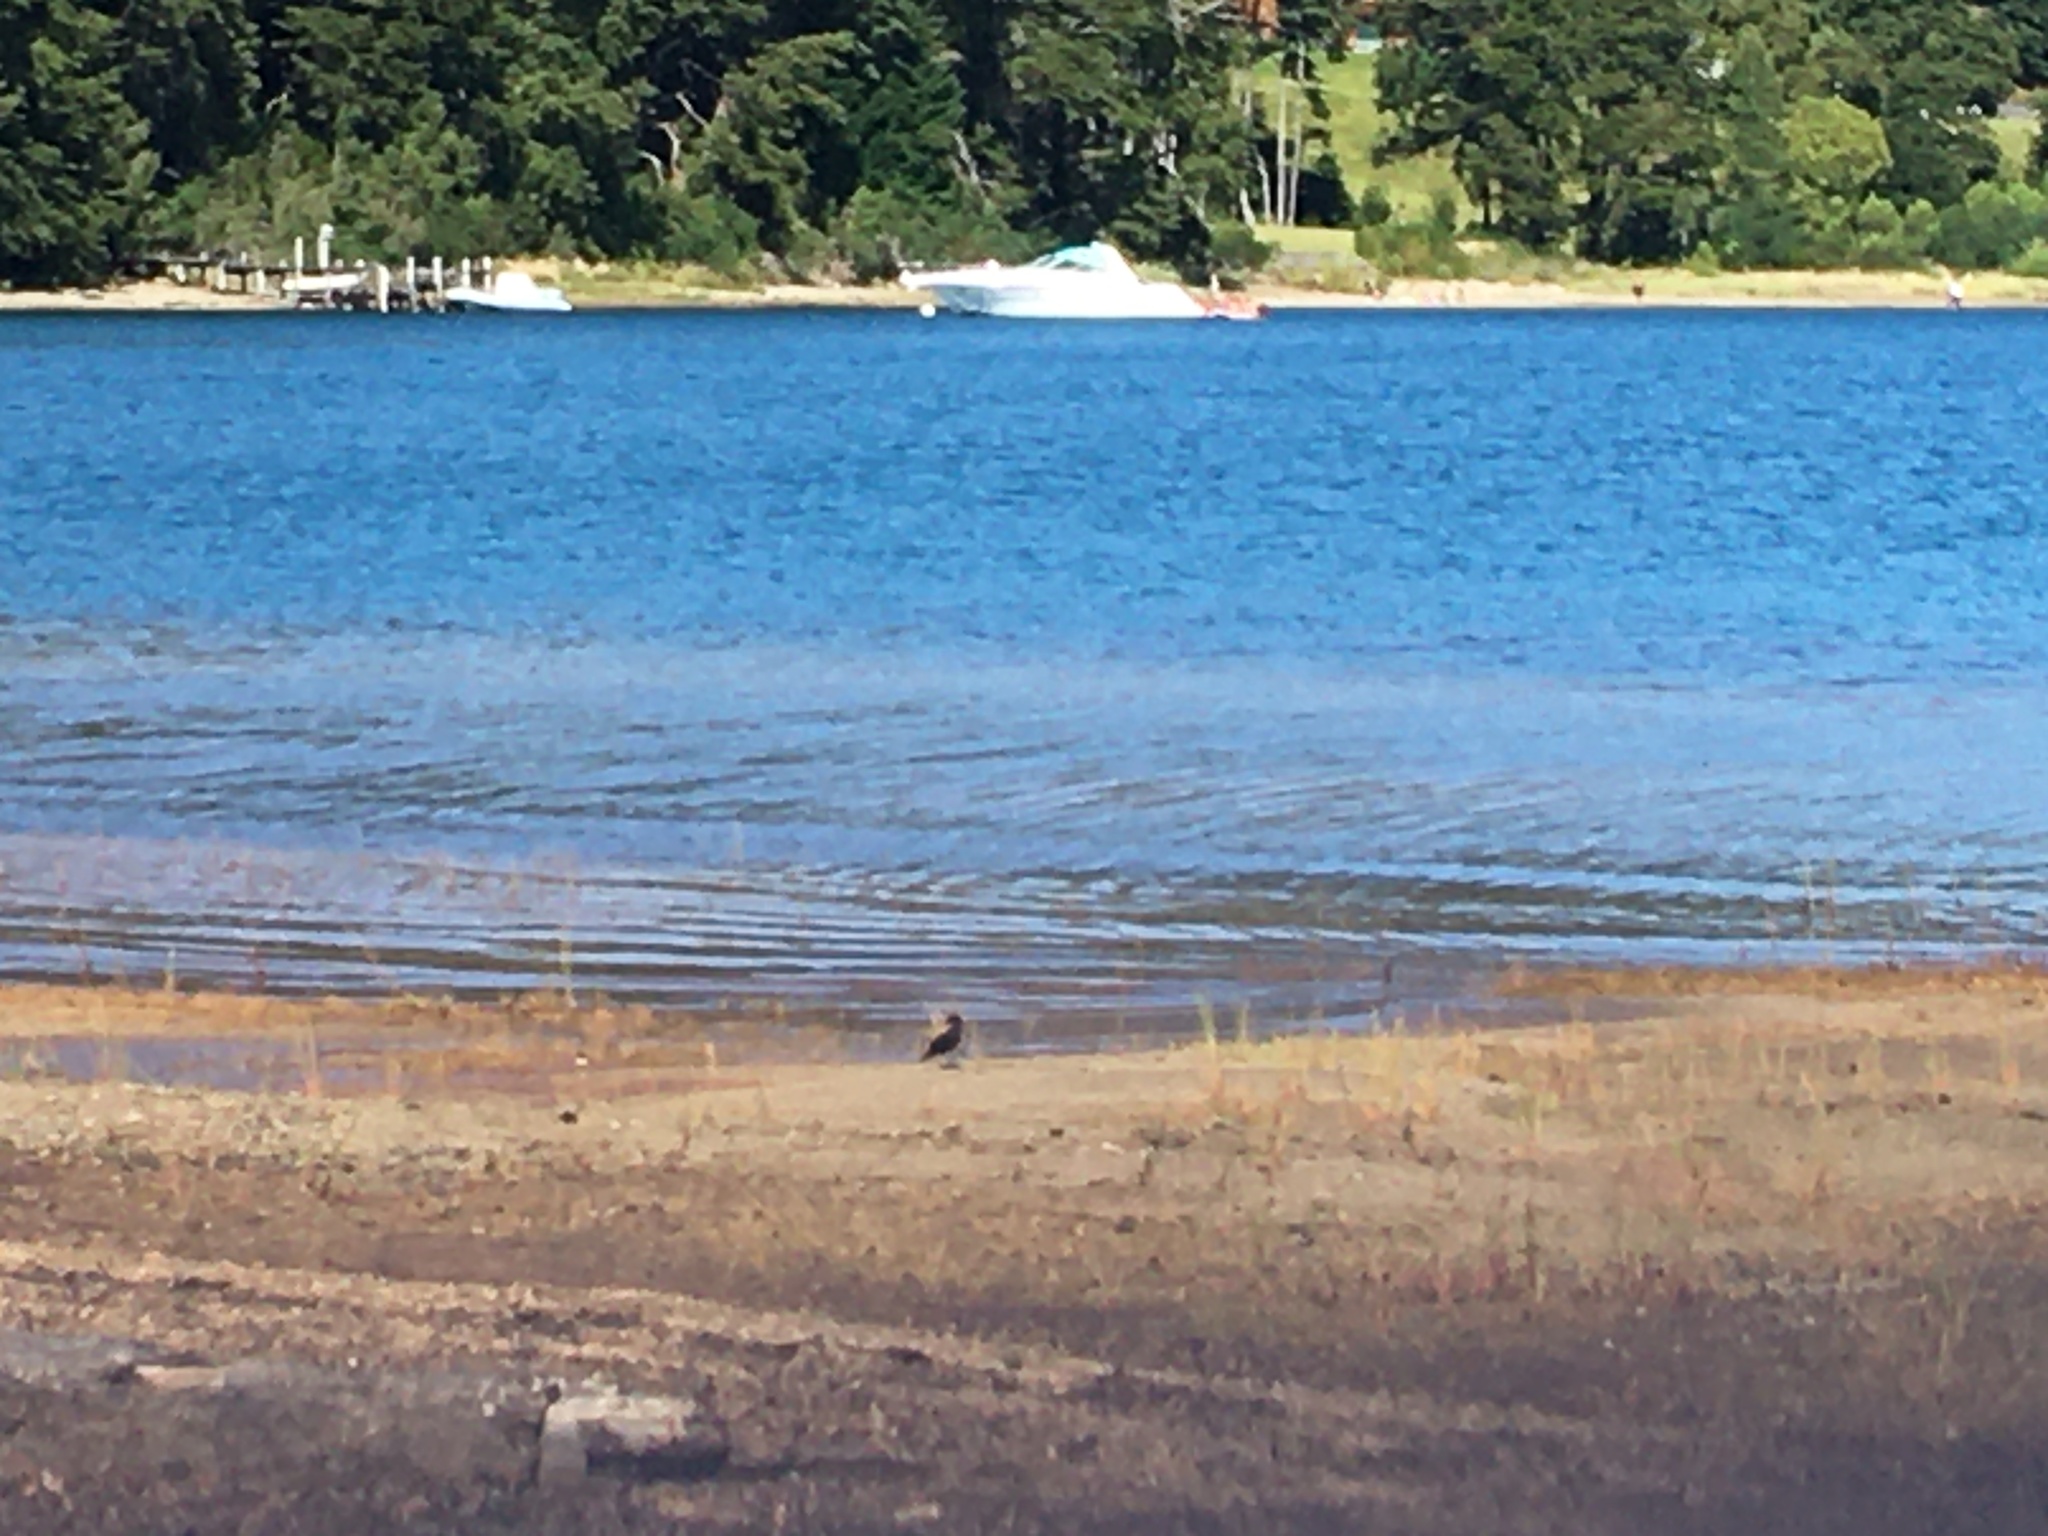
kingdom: Animalia
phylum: Chordata
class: Aves
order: Passeriformes
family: Tyrannidae
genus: Lessonia
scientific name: Lessonia rufa
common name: Austral negrito
